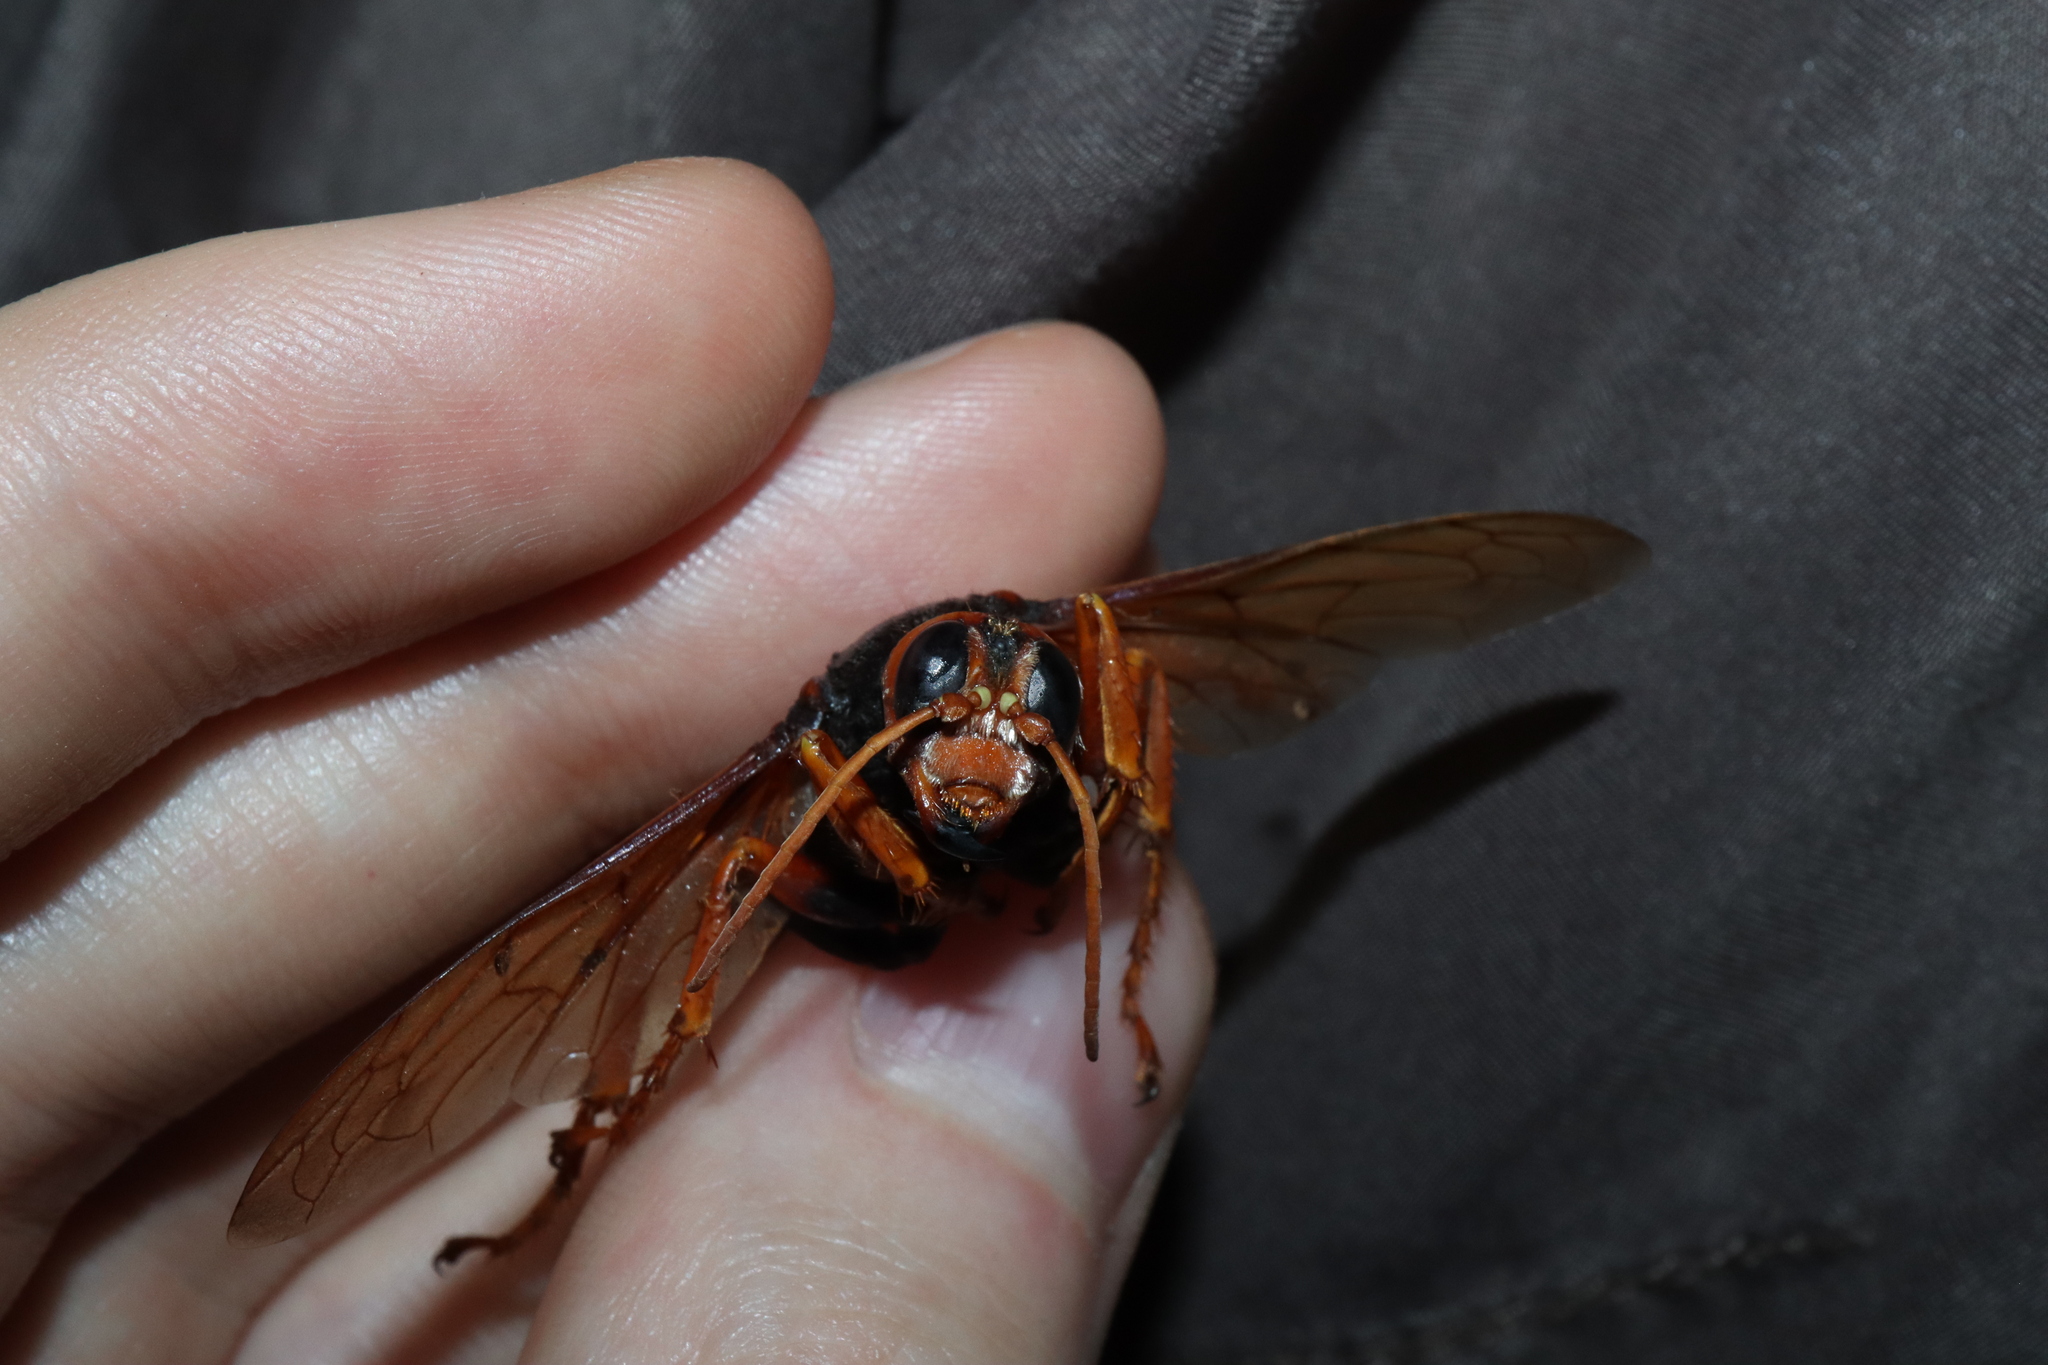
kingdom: Animalia
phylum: Arthropoda
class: Insecta
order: Hymenoptera
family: Crabronidae
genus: Exeirus
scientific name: Exeirus lateritius
